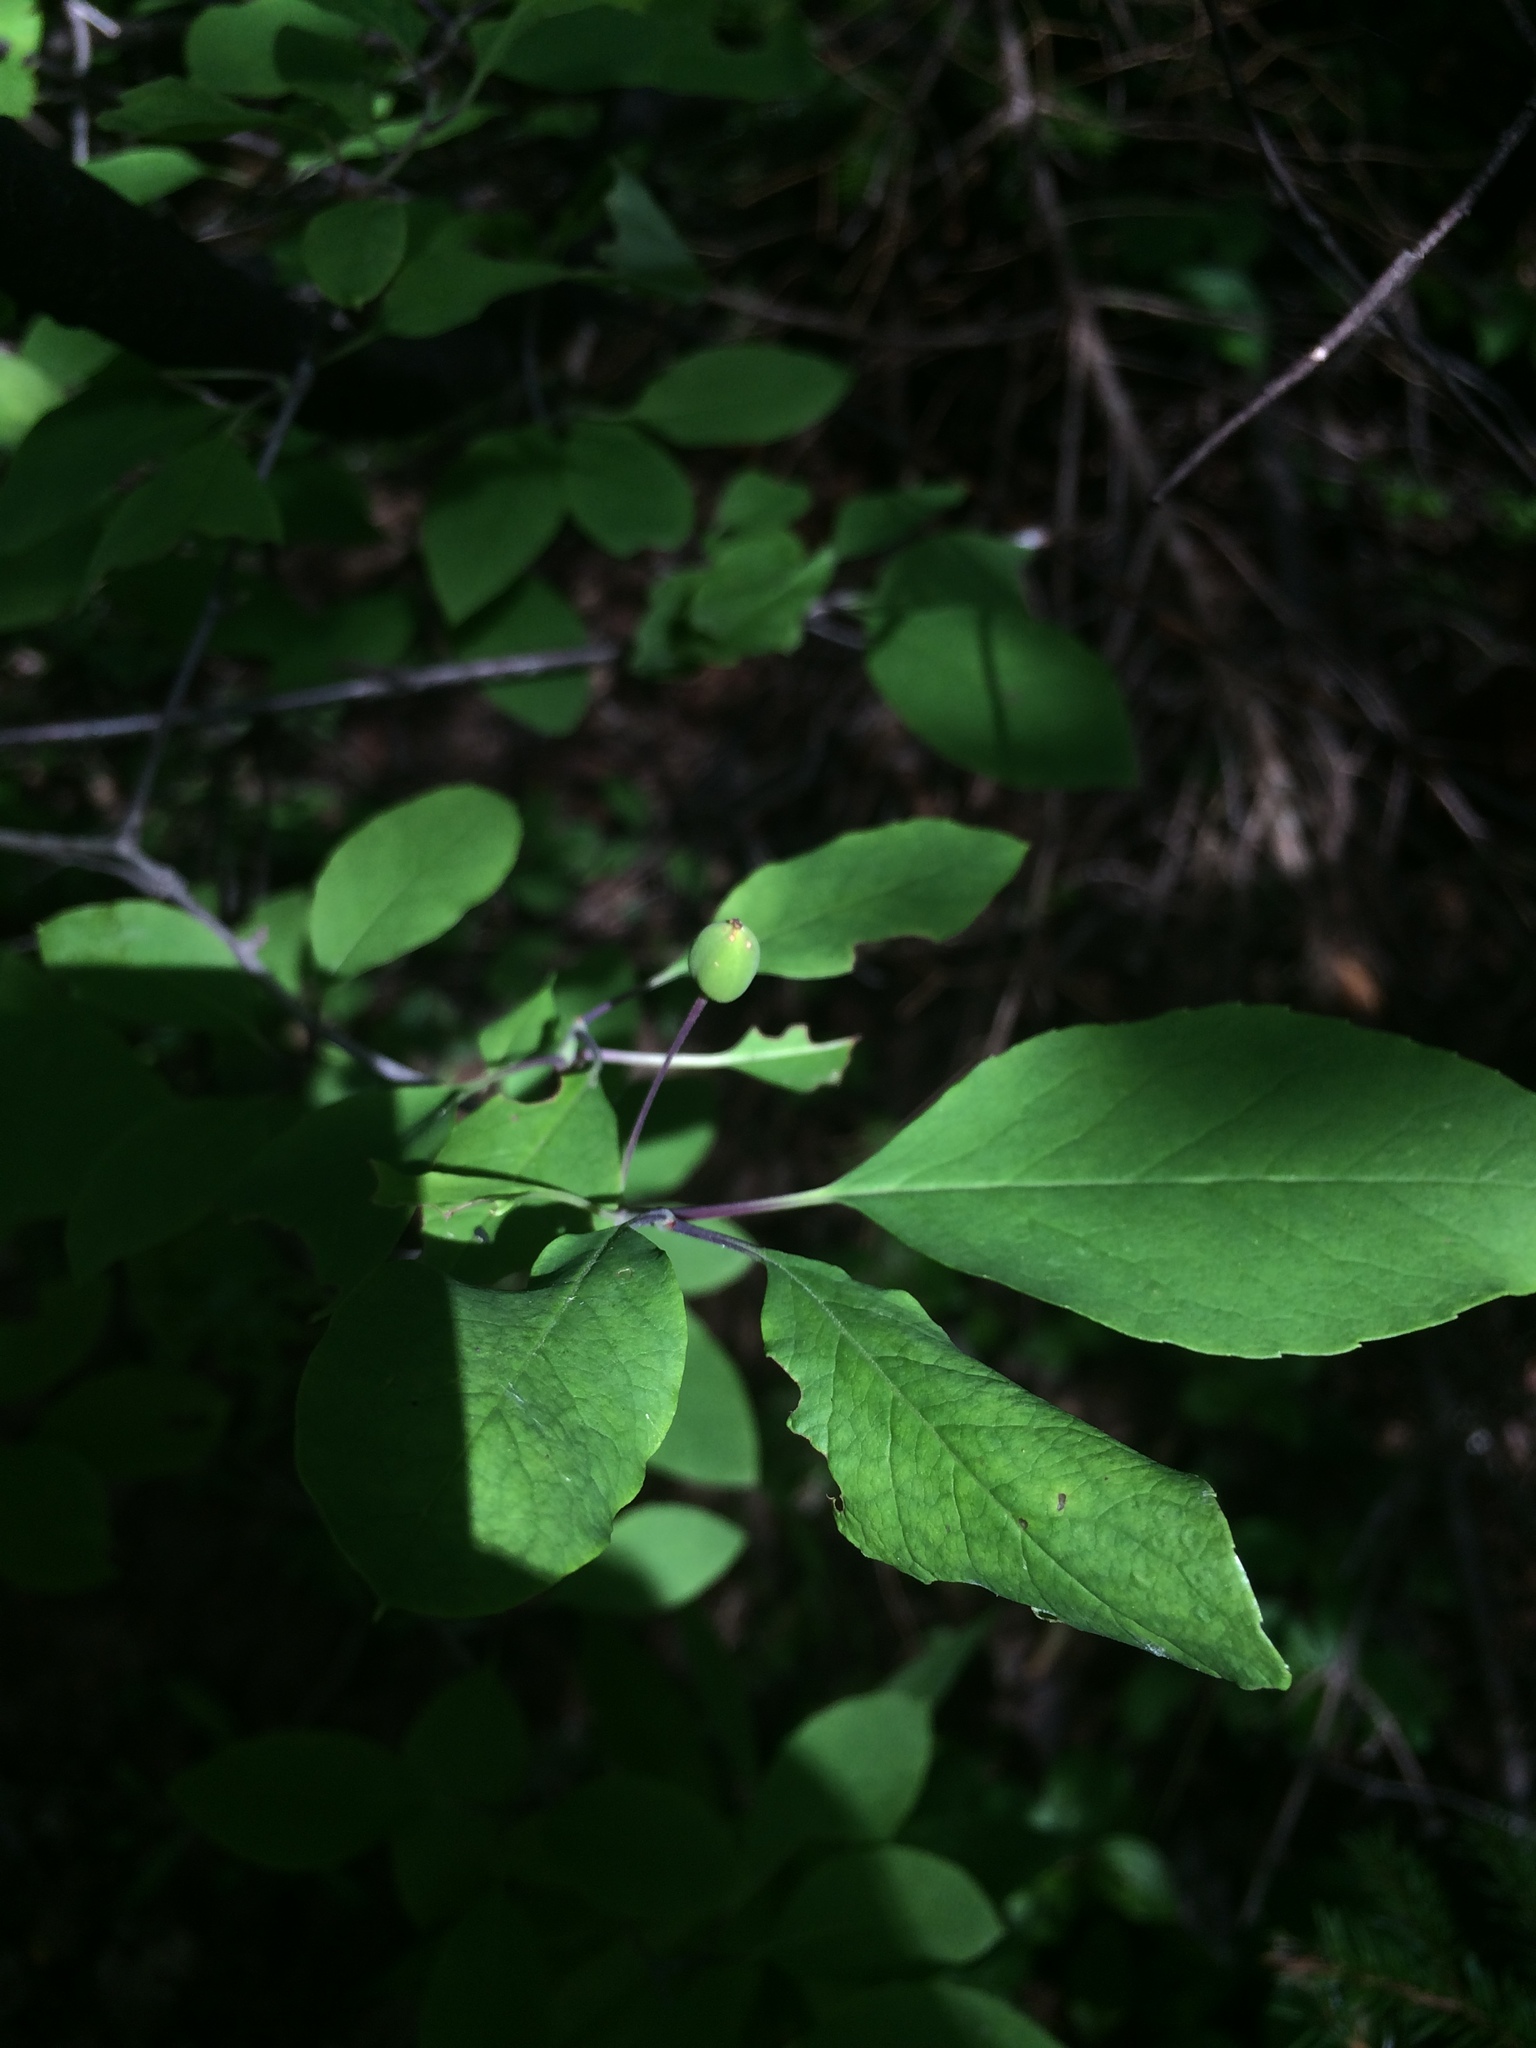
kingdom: Plantae
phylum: Tracheophyta
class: Magnoliopsida
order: Aquifoliales
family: Aquifoliaceae
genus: Ilex
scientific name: Ilex mucronata
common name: Catberry
